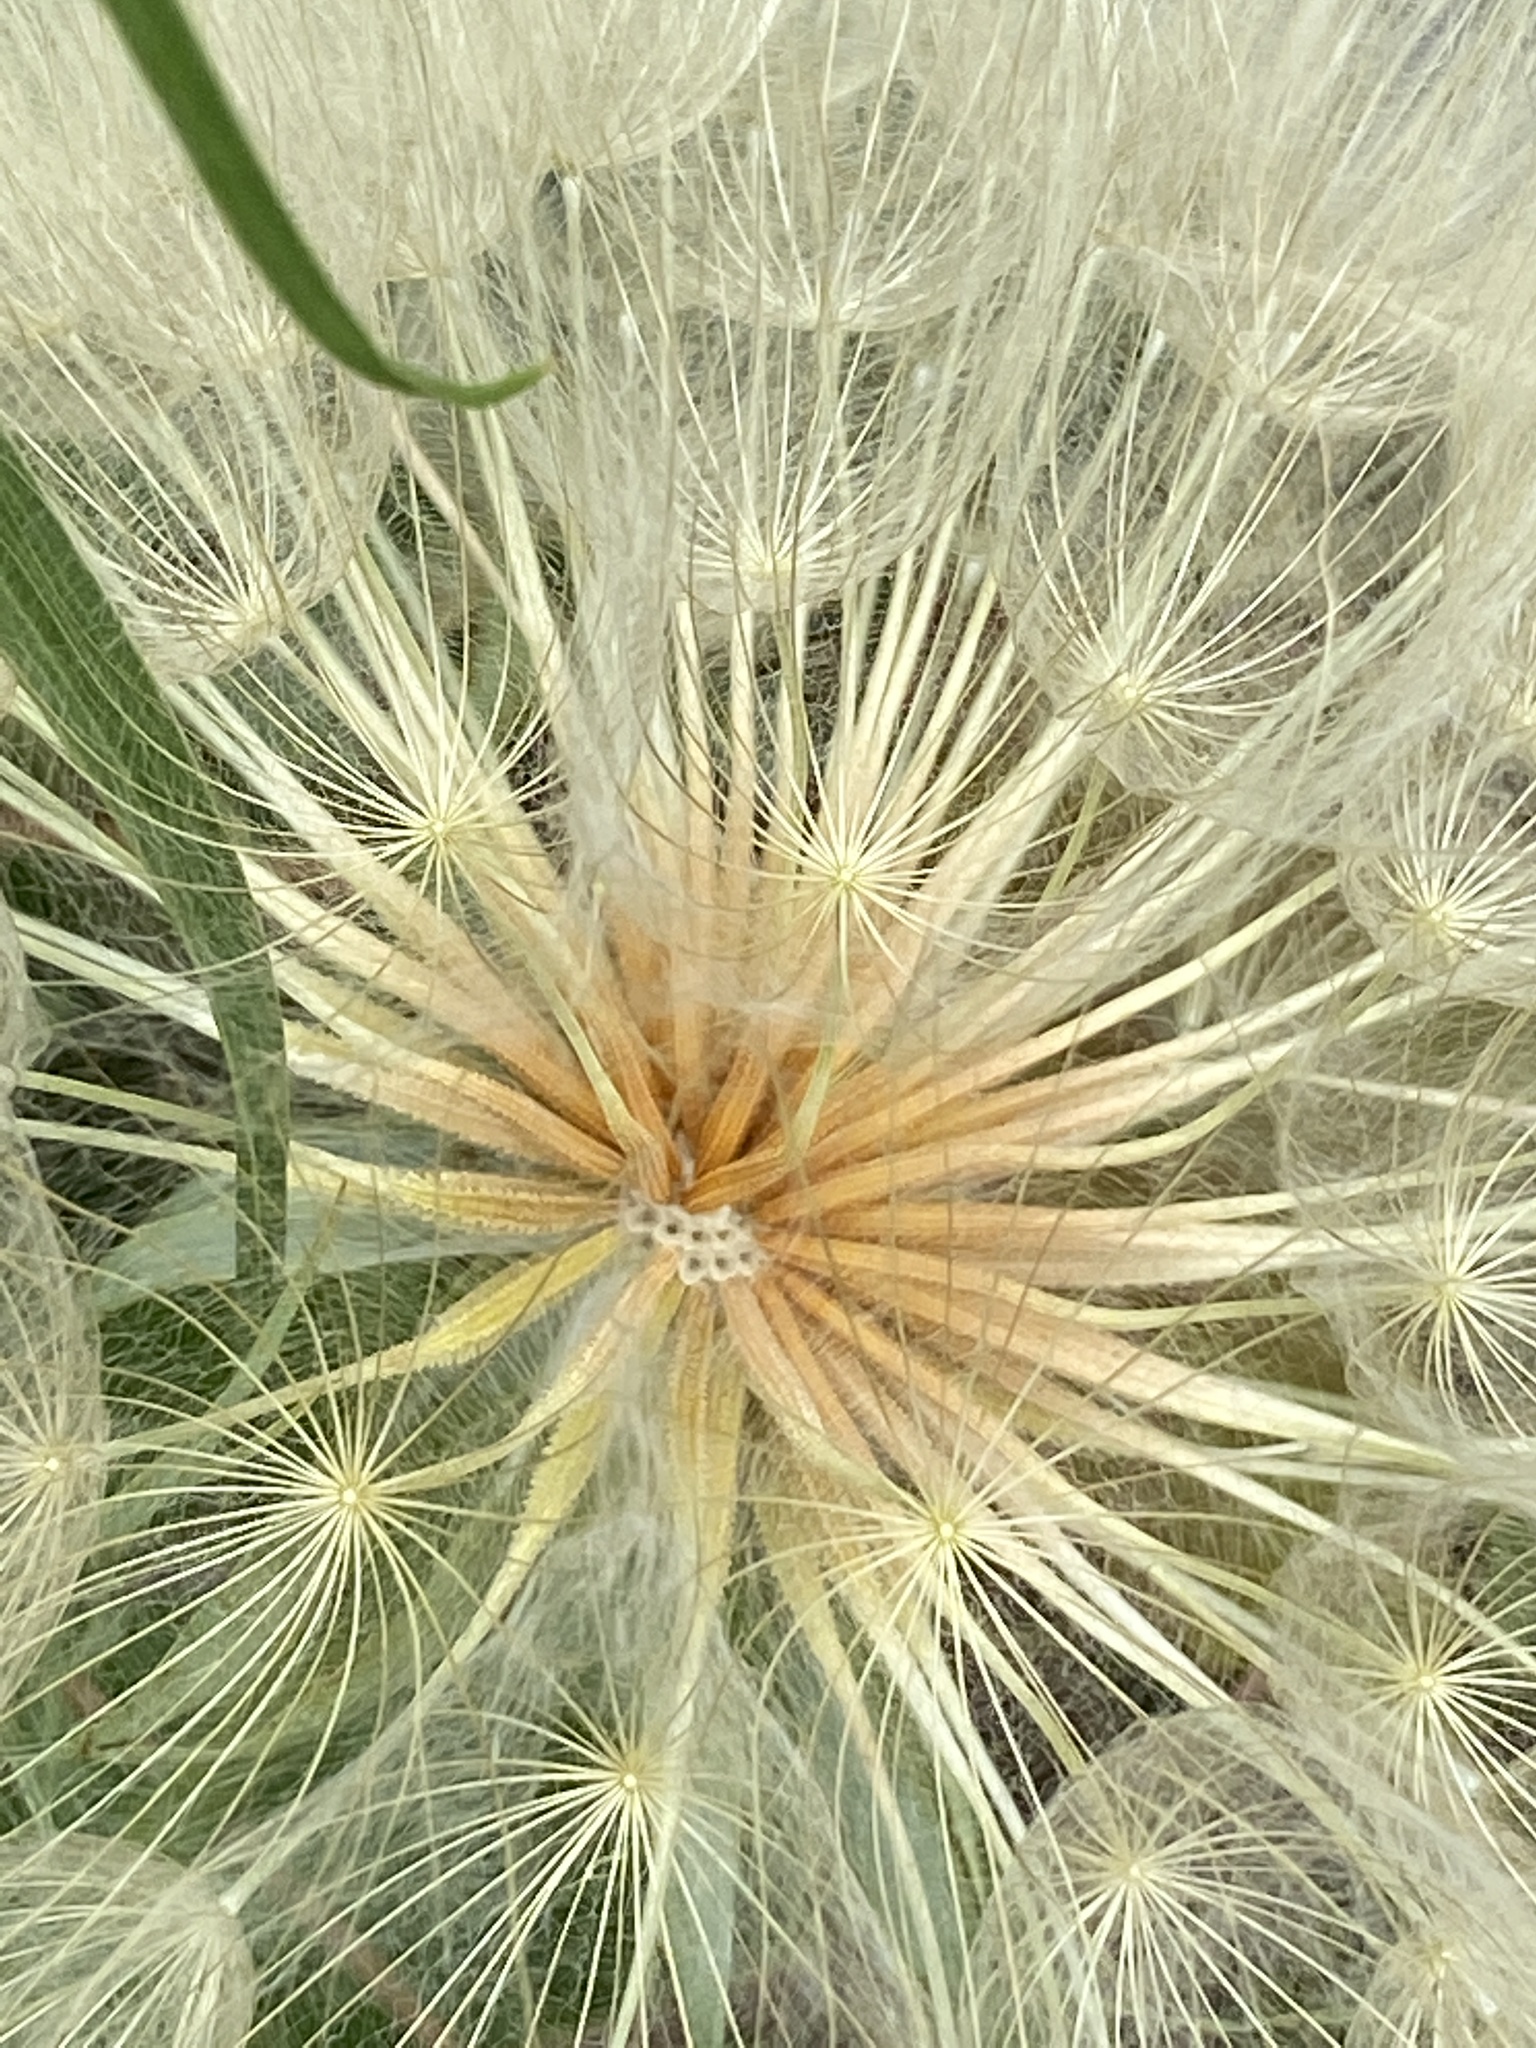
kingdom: Plantae
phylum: Tracheophyta
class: Magnoliopsida
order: Asterales
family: Asteraceae
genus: Tragopogon
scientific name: Tragopogon dubius
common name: Yellow salsify
